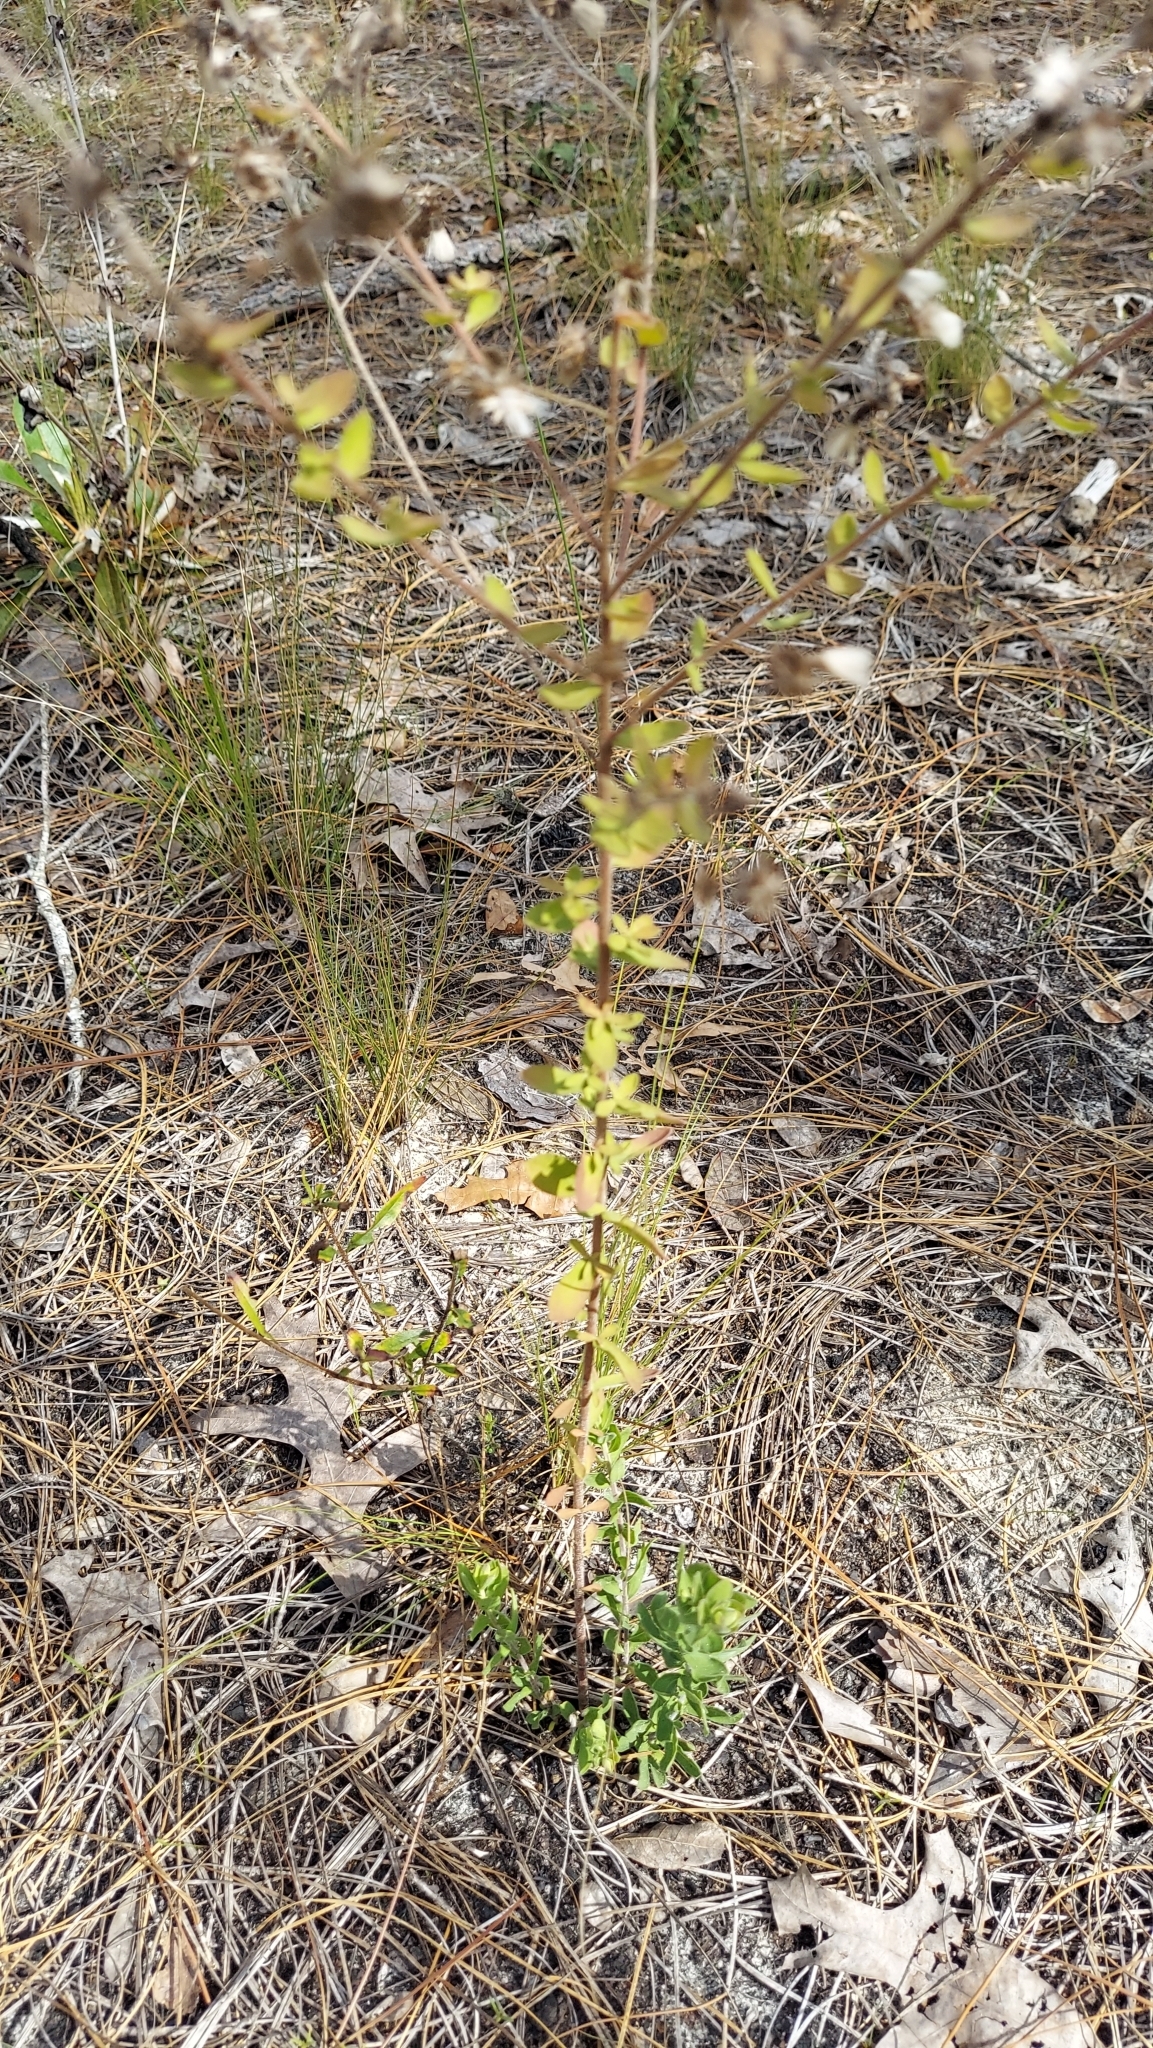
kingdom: Plantae
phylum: Tracheophyta
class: Magnoliopsida
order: Asterales
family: Asteraceae
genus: Sericocarpus
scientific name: Sericocarpus tortifolius
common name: Dixie aster
